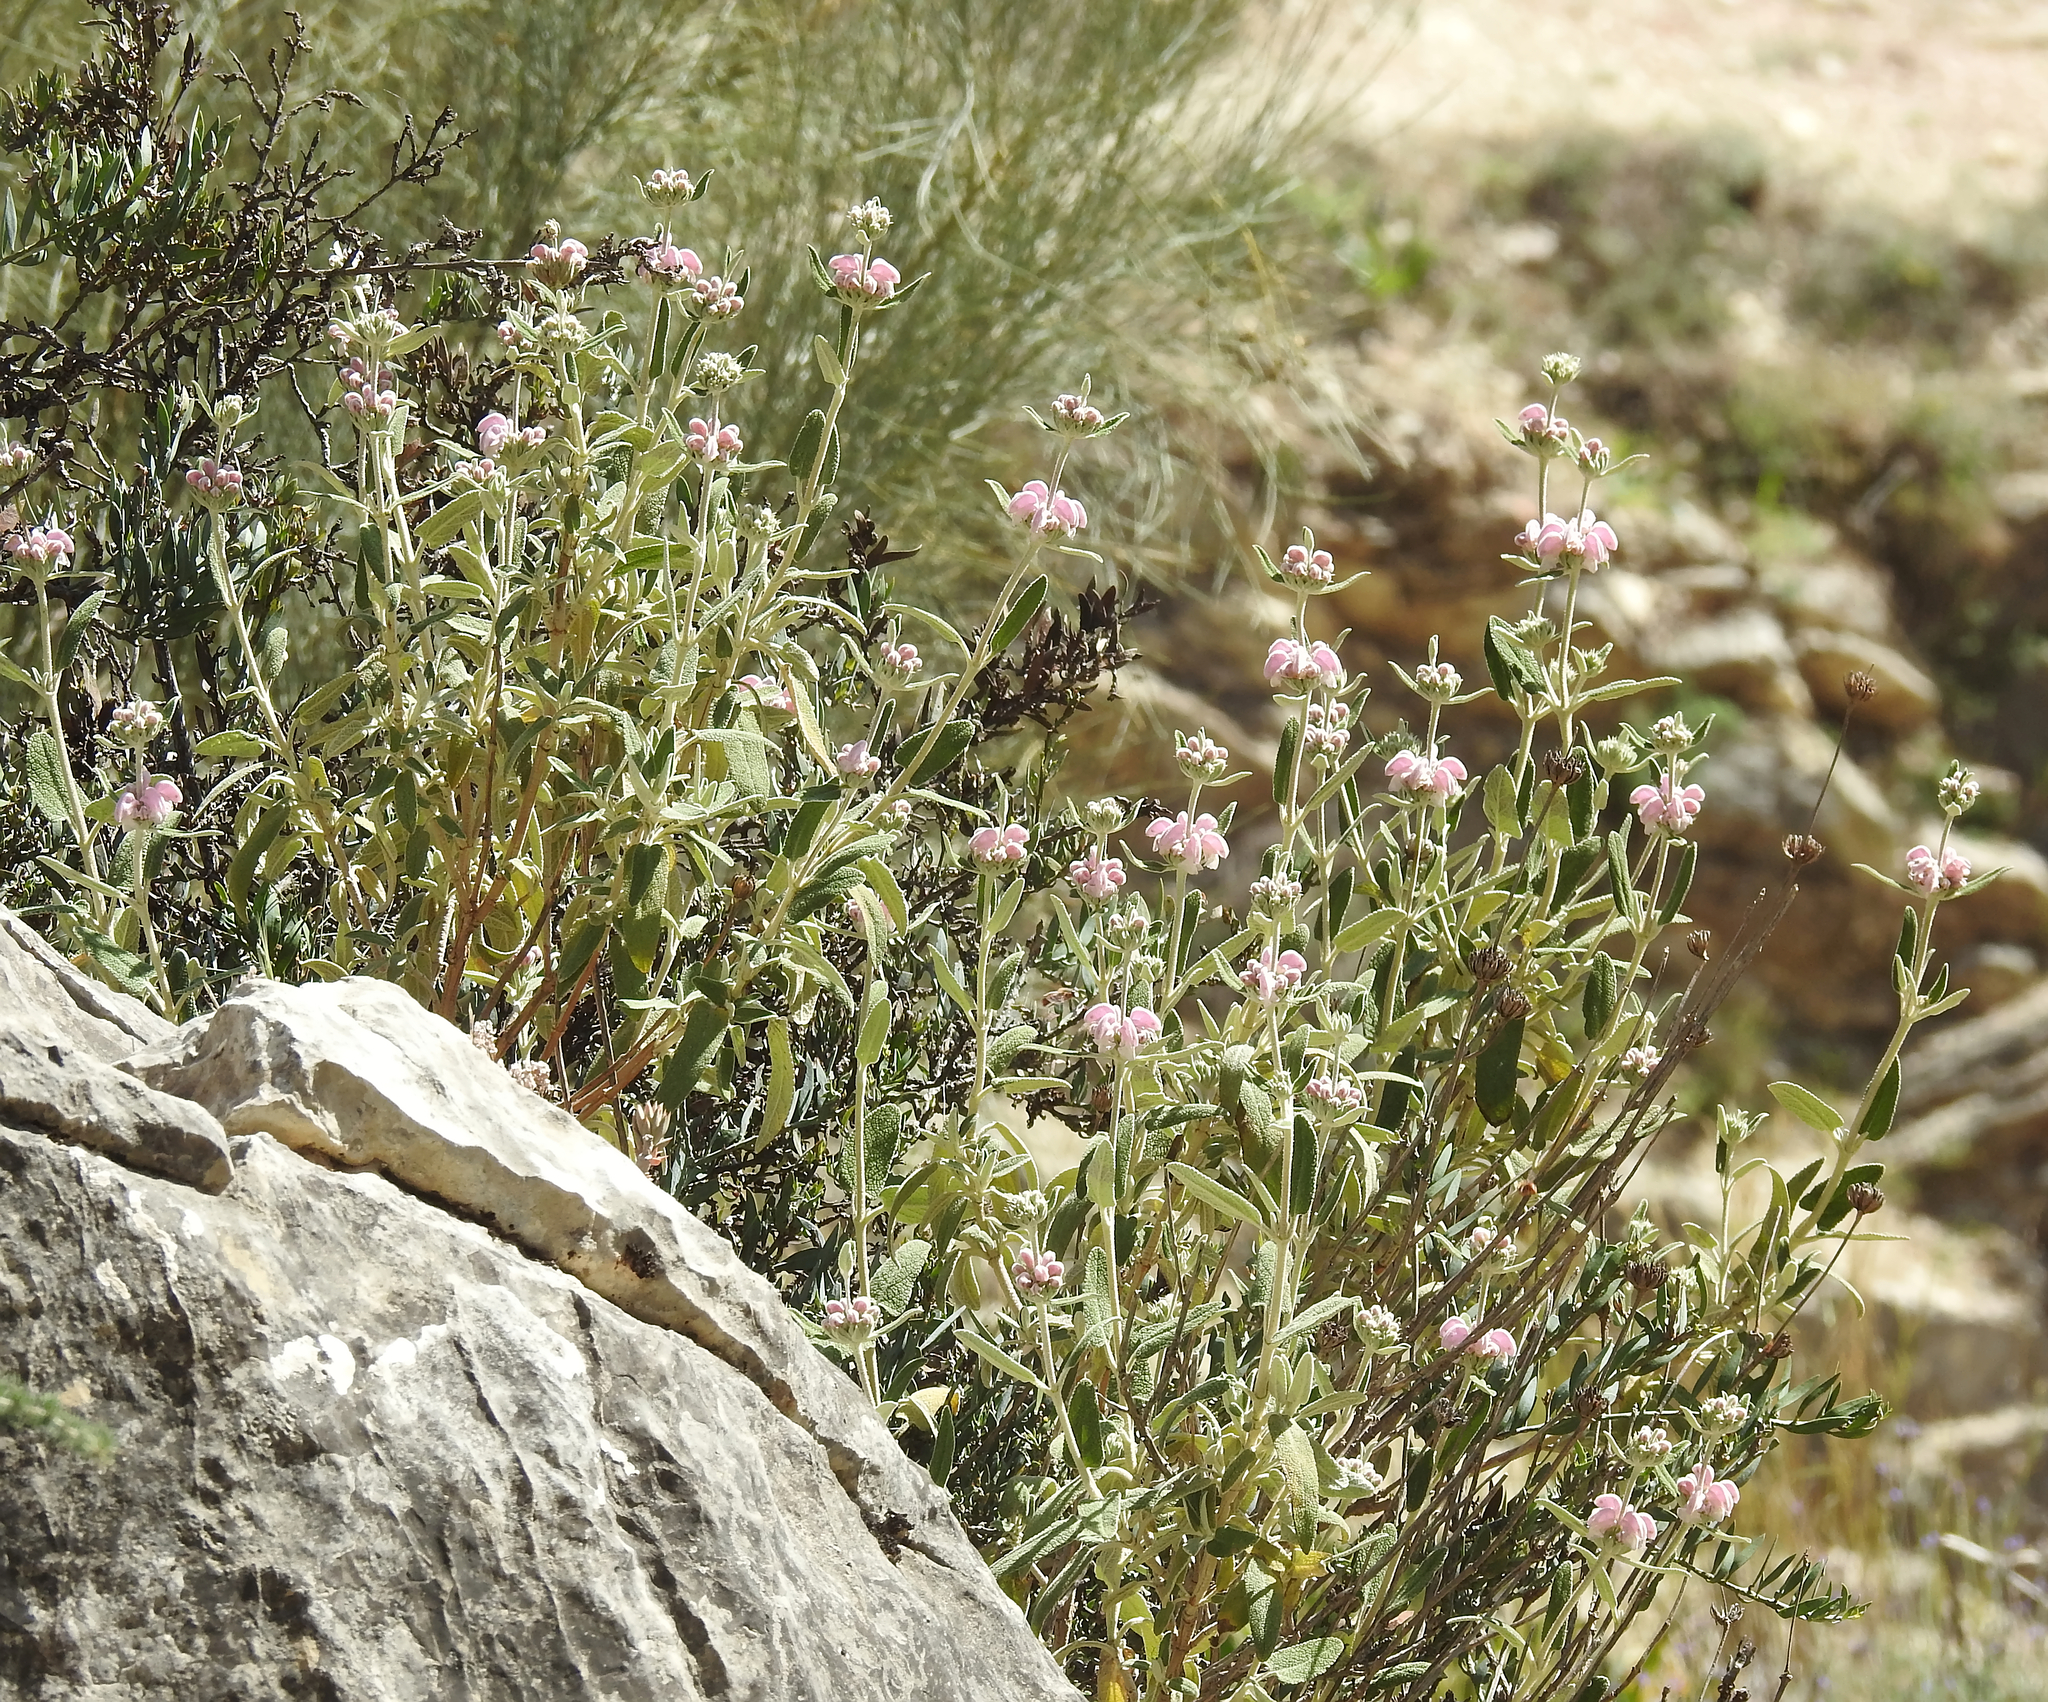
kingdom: Plantae
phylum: Tracheophyta
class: Magnoliopsida
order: Lamiales
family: Lamiaceae
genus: Phlomis
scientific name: Phlomis purpurea
